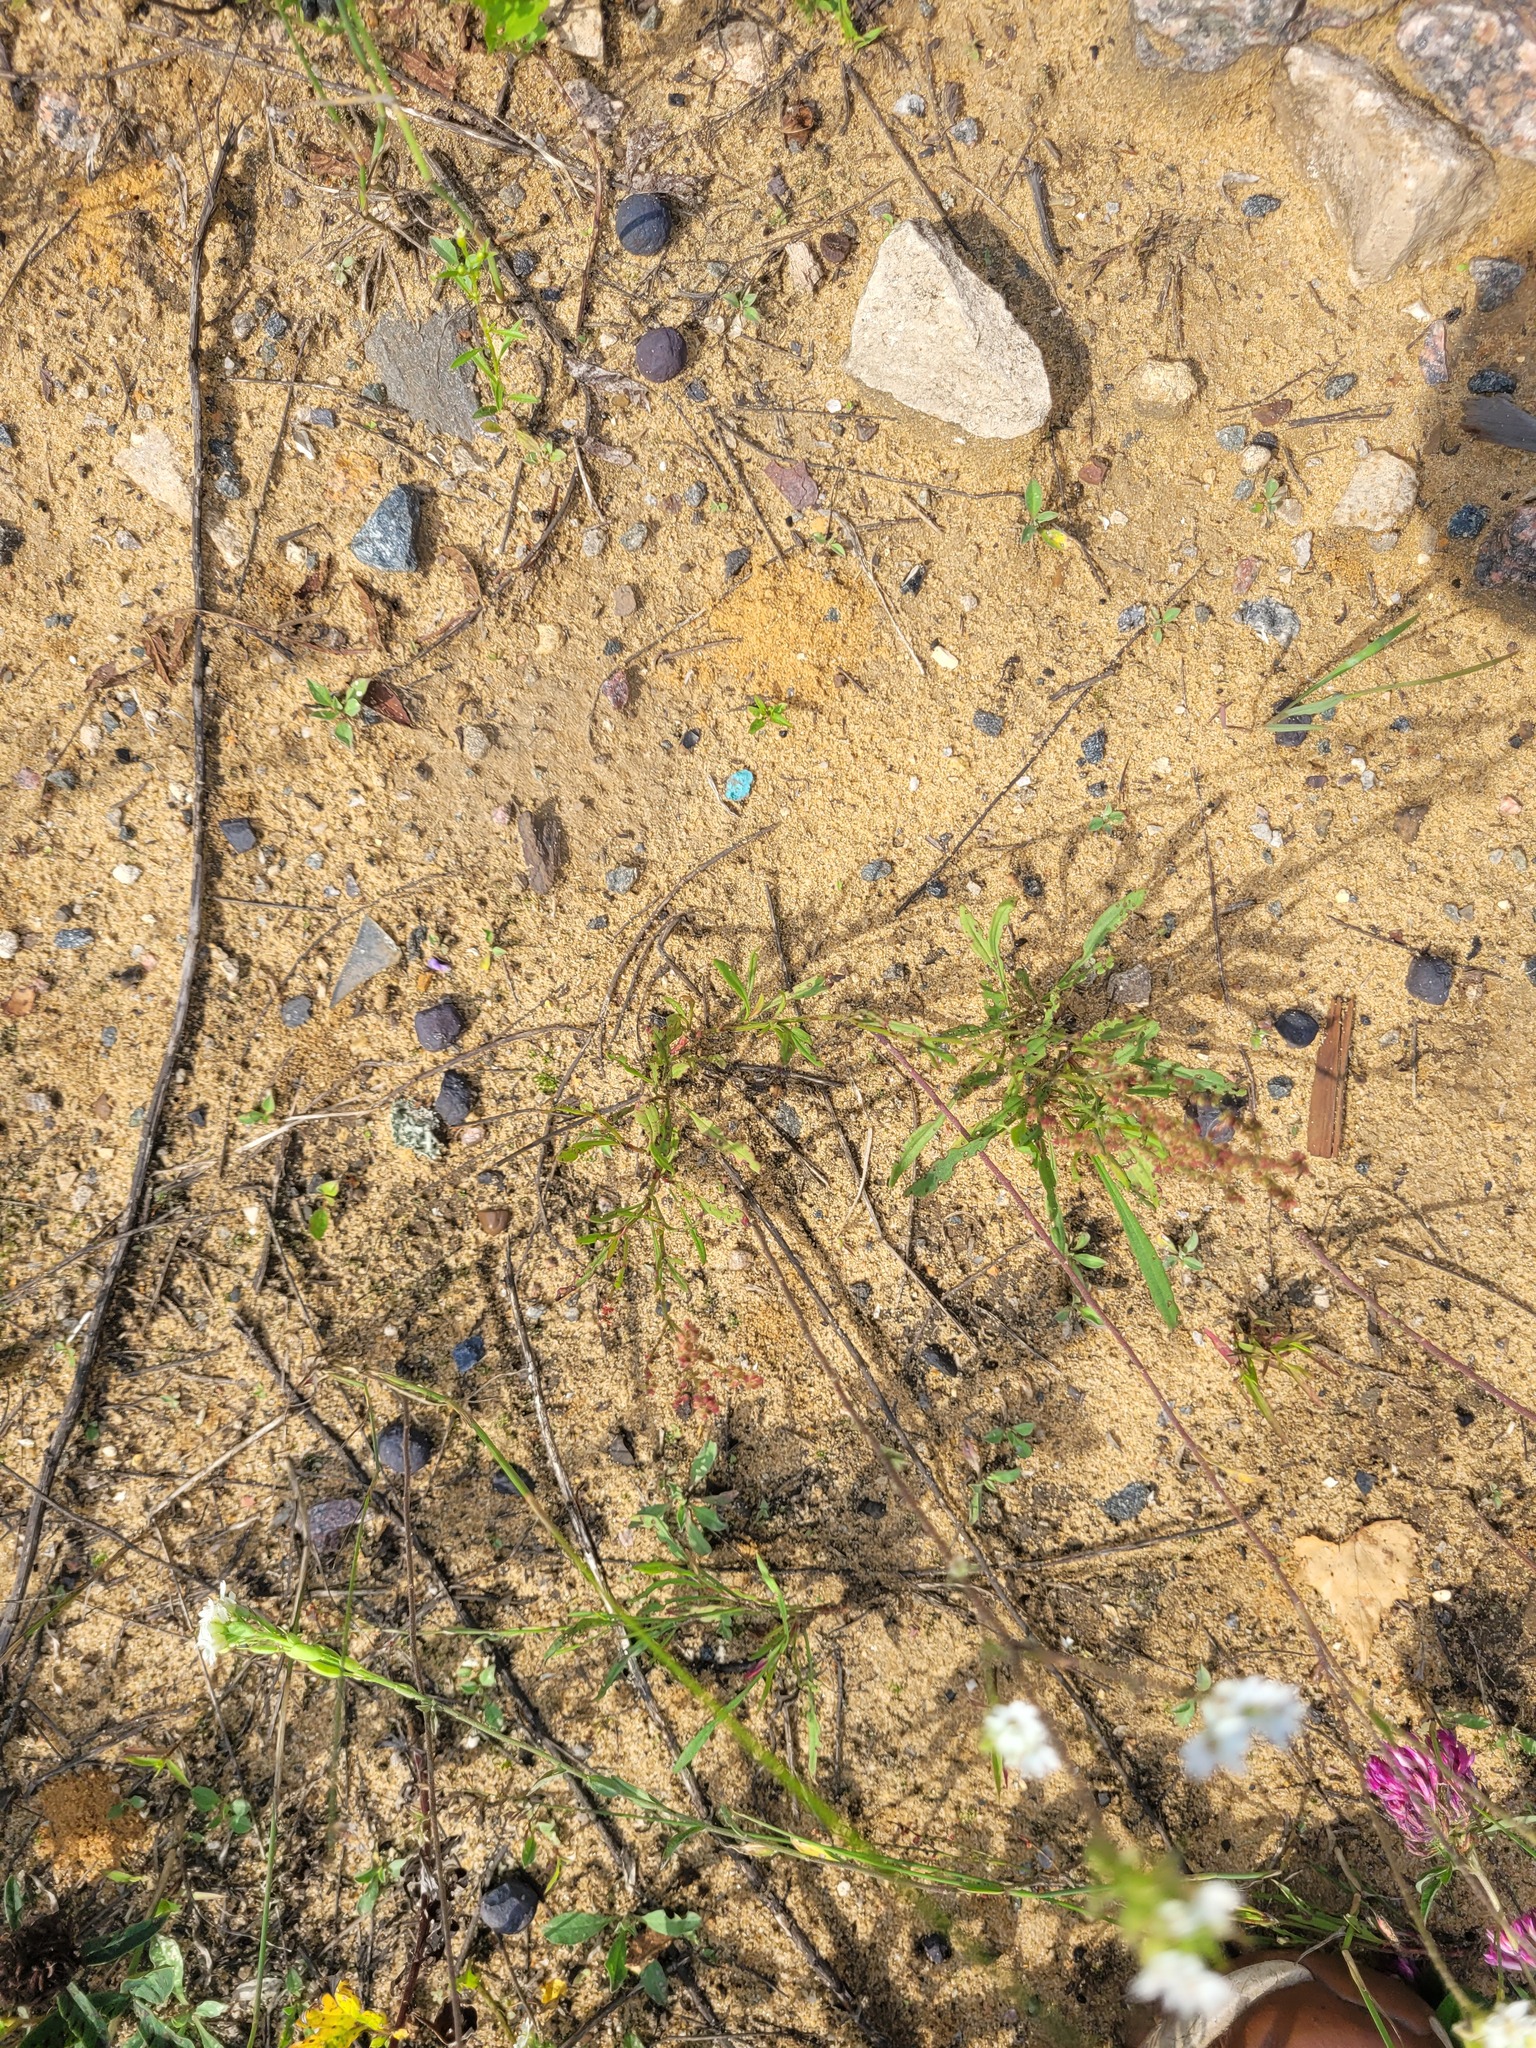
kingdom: Plantae
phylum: Tracheophyta
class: Magnoliopsida
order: Caryophyllales
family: Polygonaceae
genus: Rumex
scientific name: Rumex acetosella
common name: Common sheep sorrel
